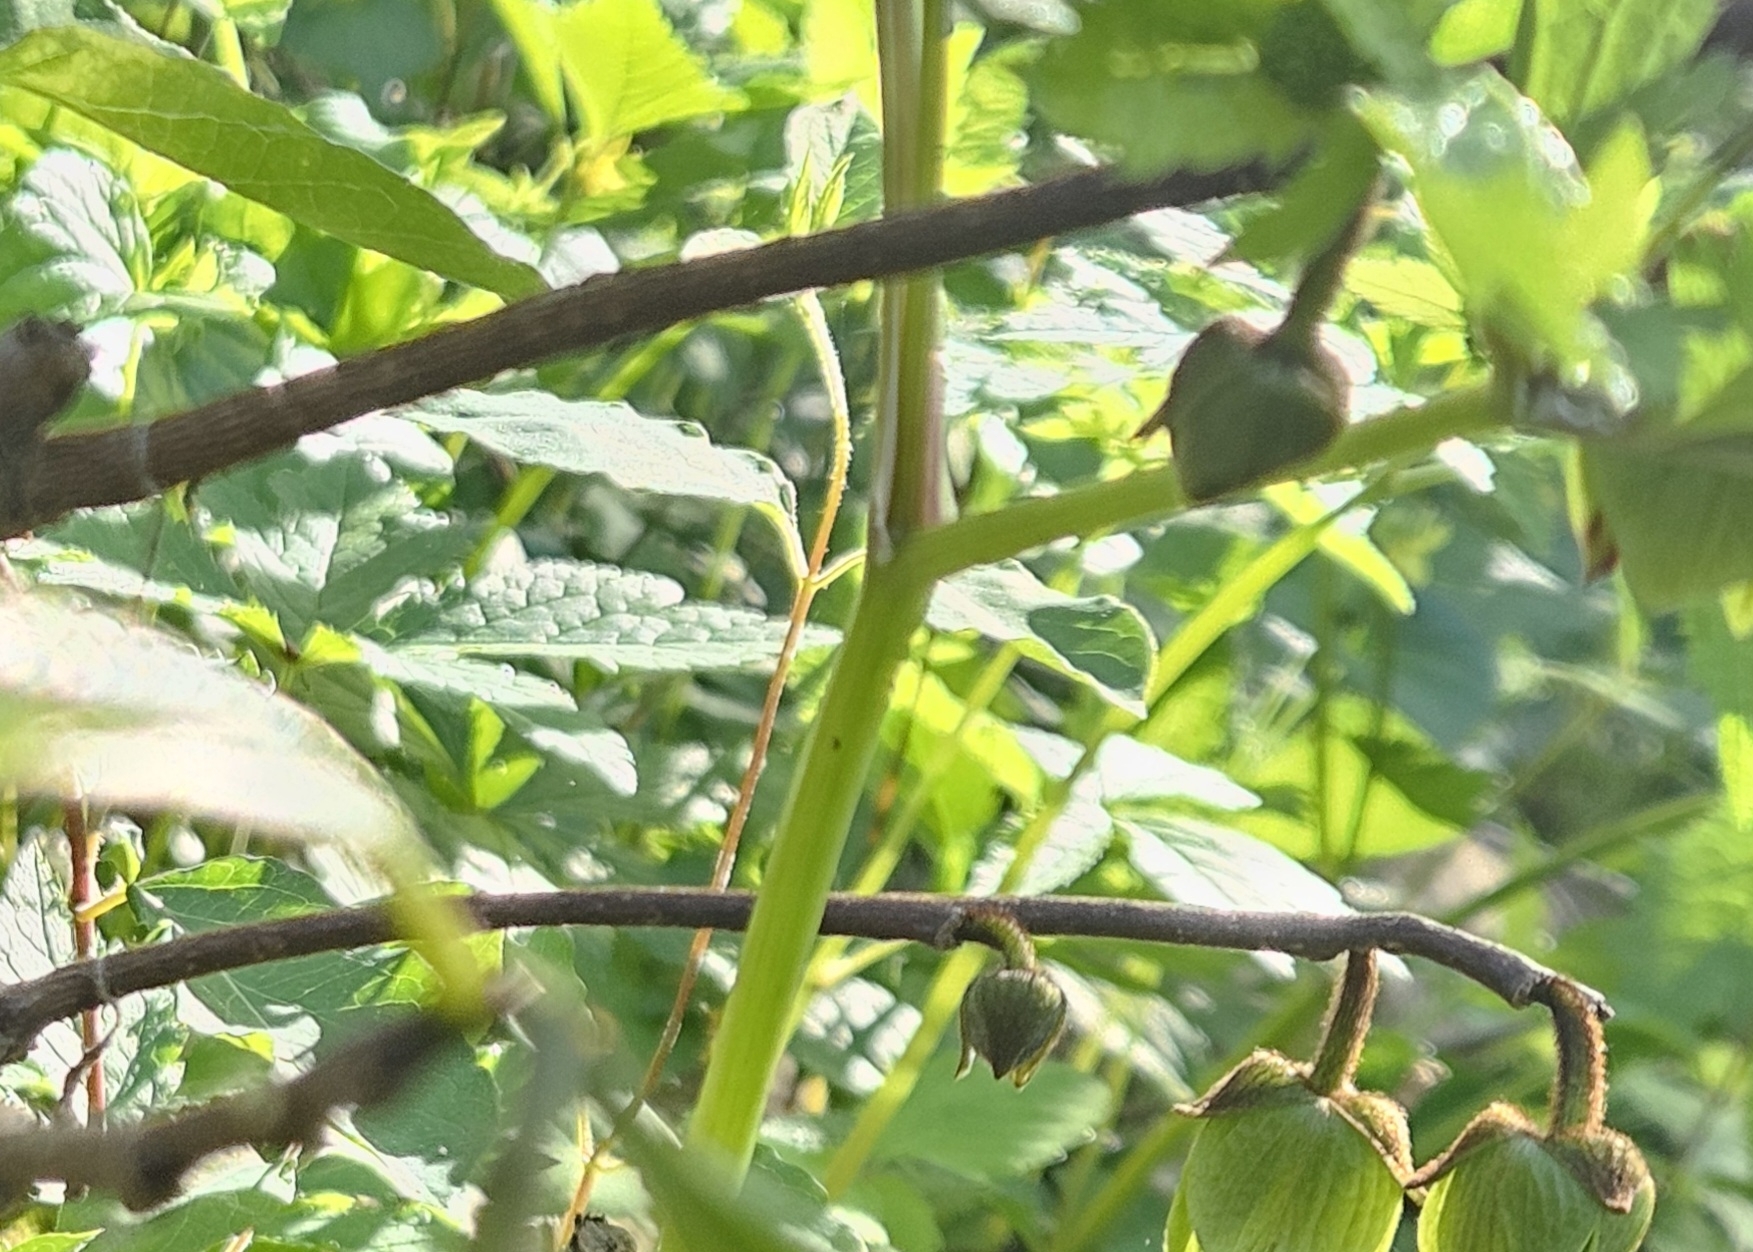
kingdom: Plantae
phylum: Tracheophyta
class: Magnoliopsida
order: Magnoliales
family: Annonaceae
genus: Asimina
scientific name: Asimina triloba
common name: Dog-banana
